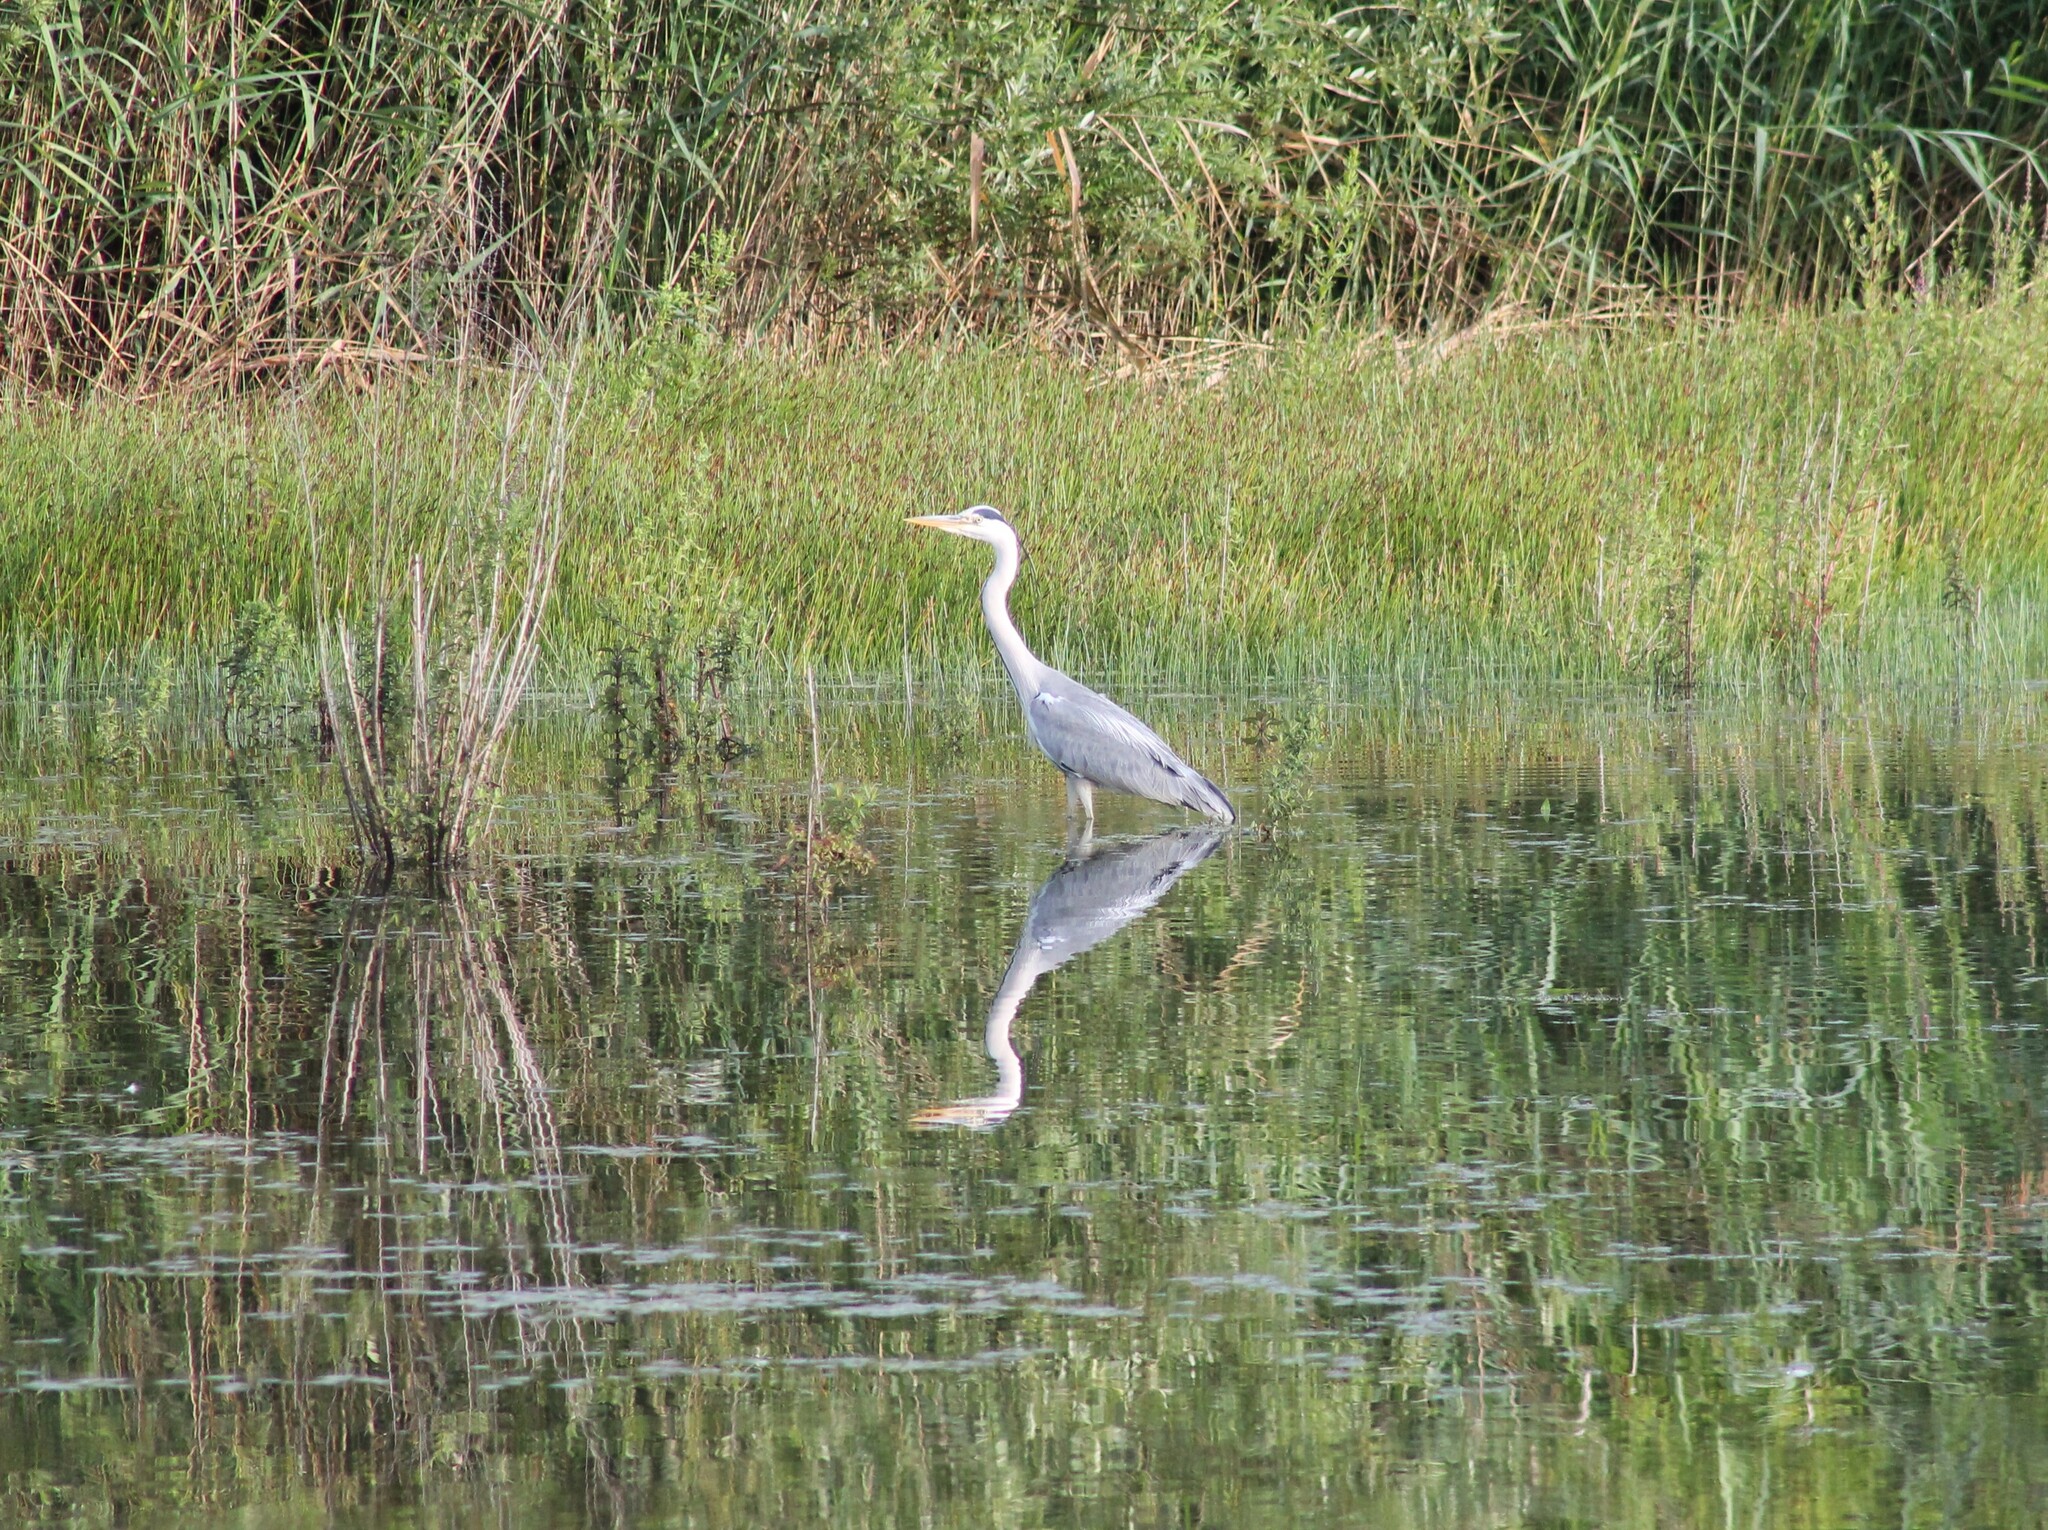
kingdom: Animalia
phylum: Chordata
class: Aves
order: Pelecaniformes
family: Ardeidae
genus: Ardea
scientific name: Ardea cinerea
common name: Grey heron
